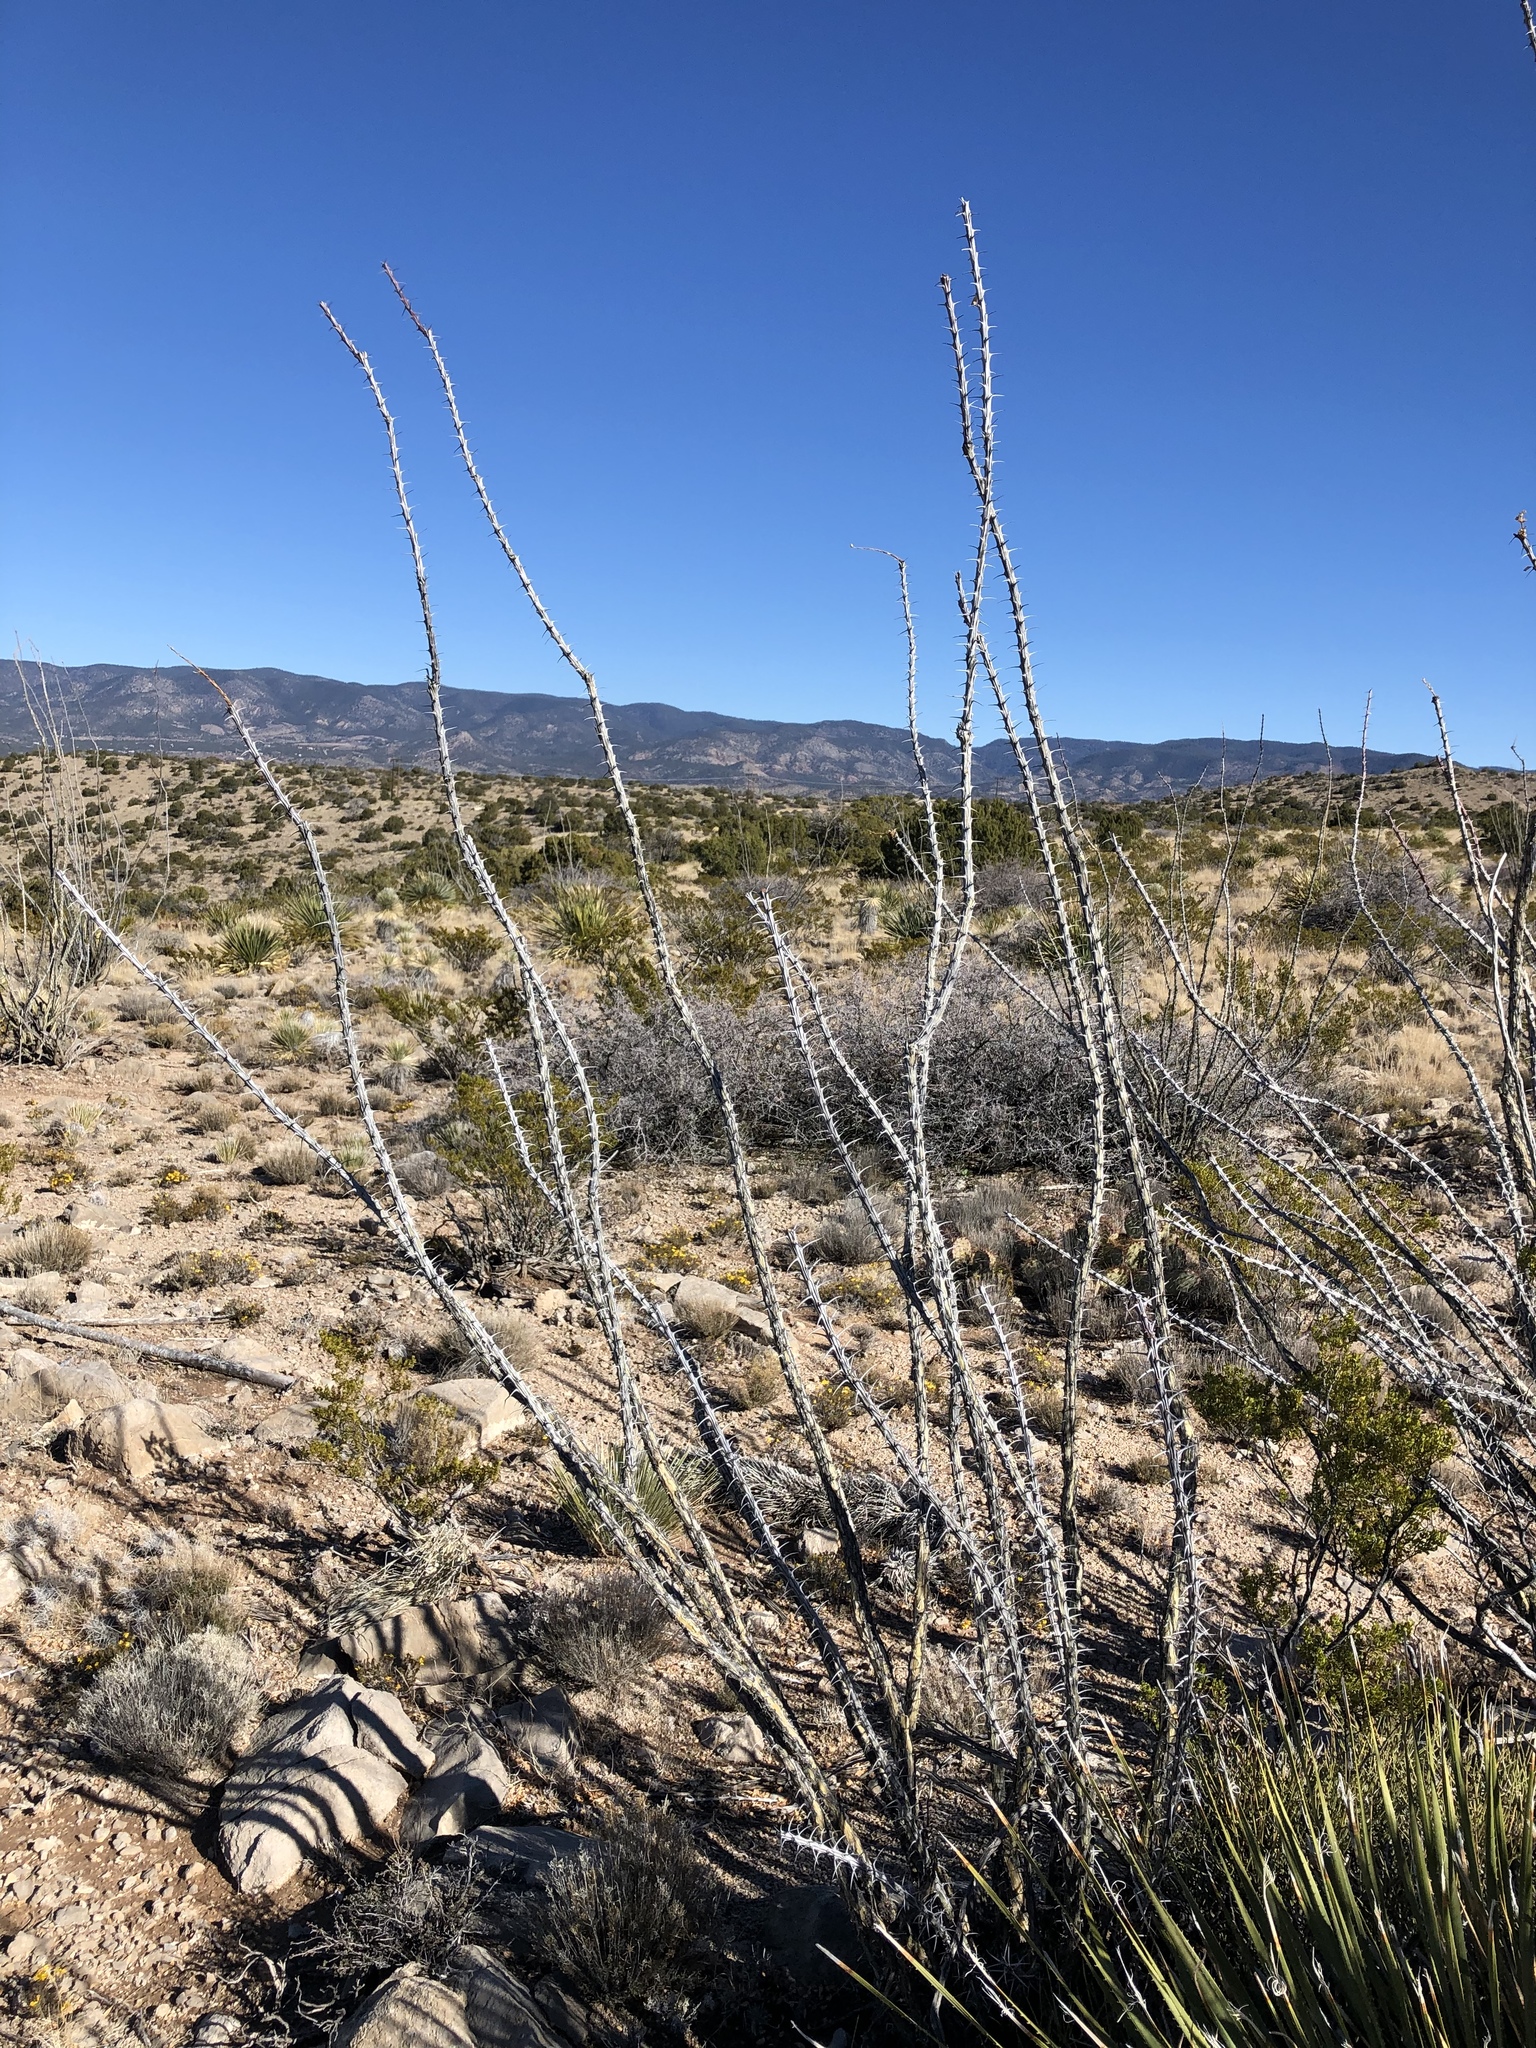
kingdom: Plantae
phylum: Tracheophyta
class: Magnoliopsida
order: Ericales
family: Fouquieriaceae
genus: Fouquieria
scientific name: Fouquieria splendens
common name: Vine-cactus
